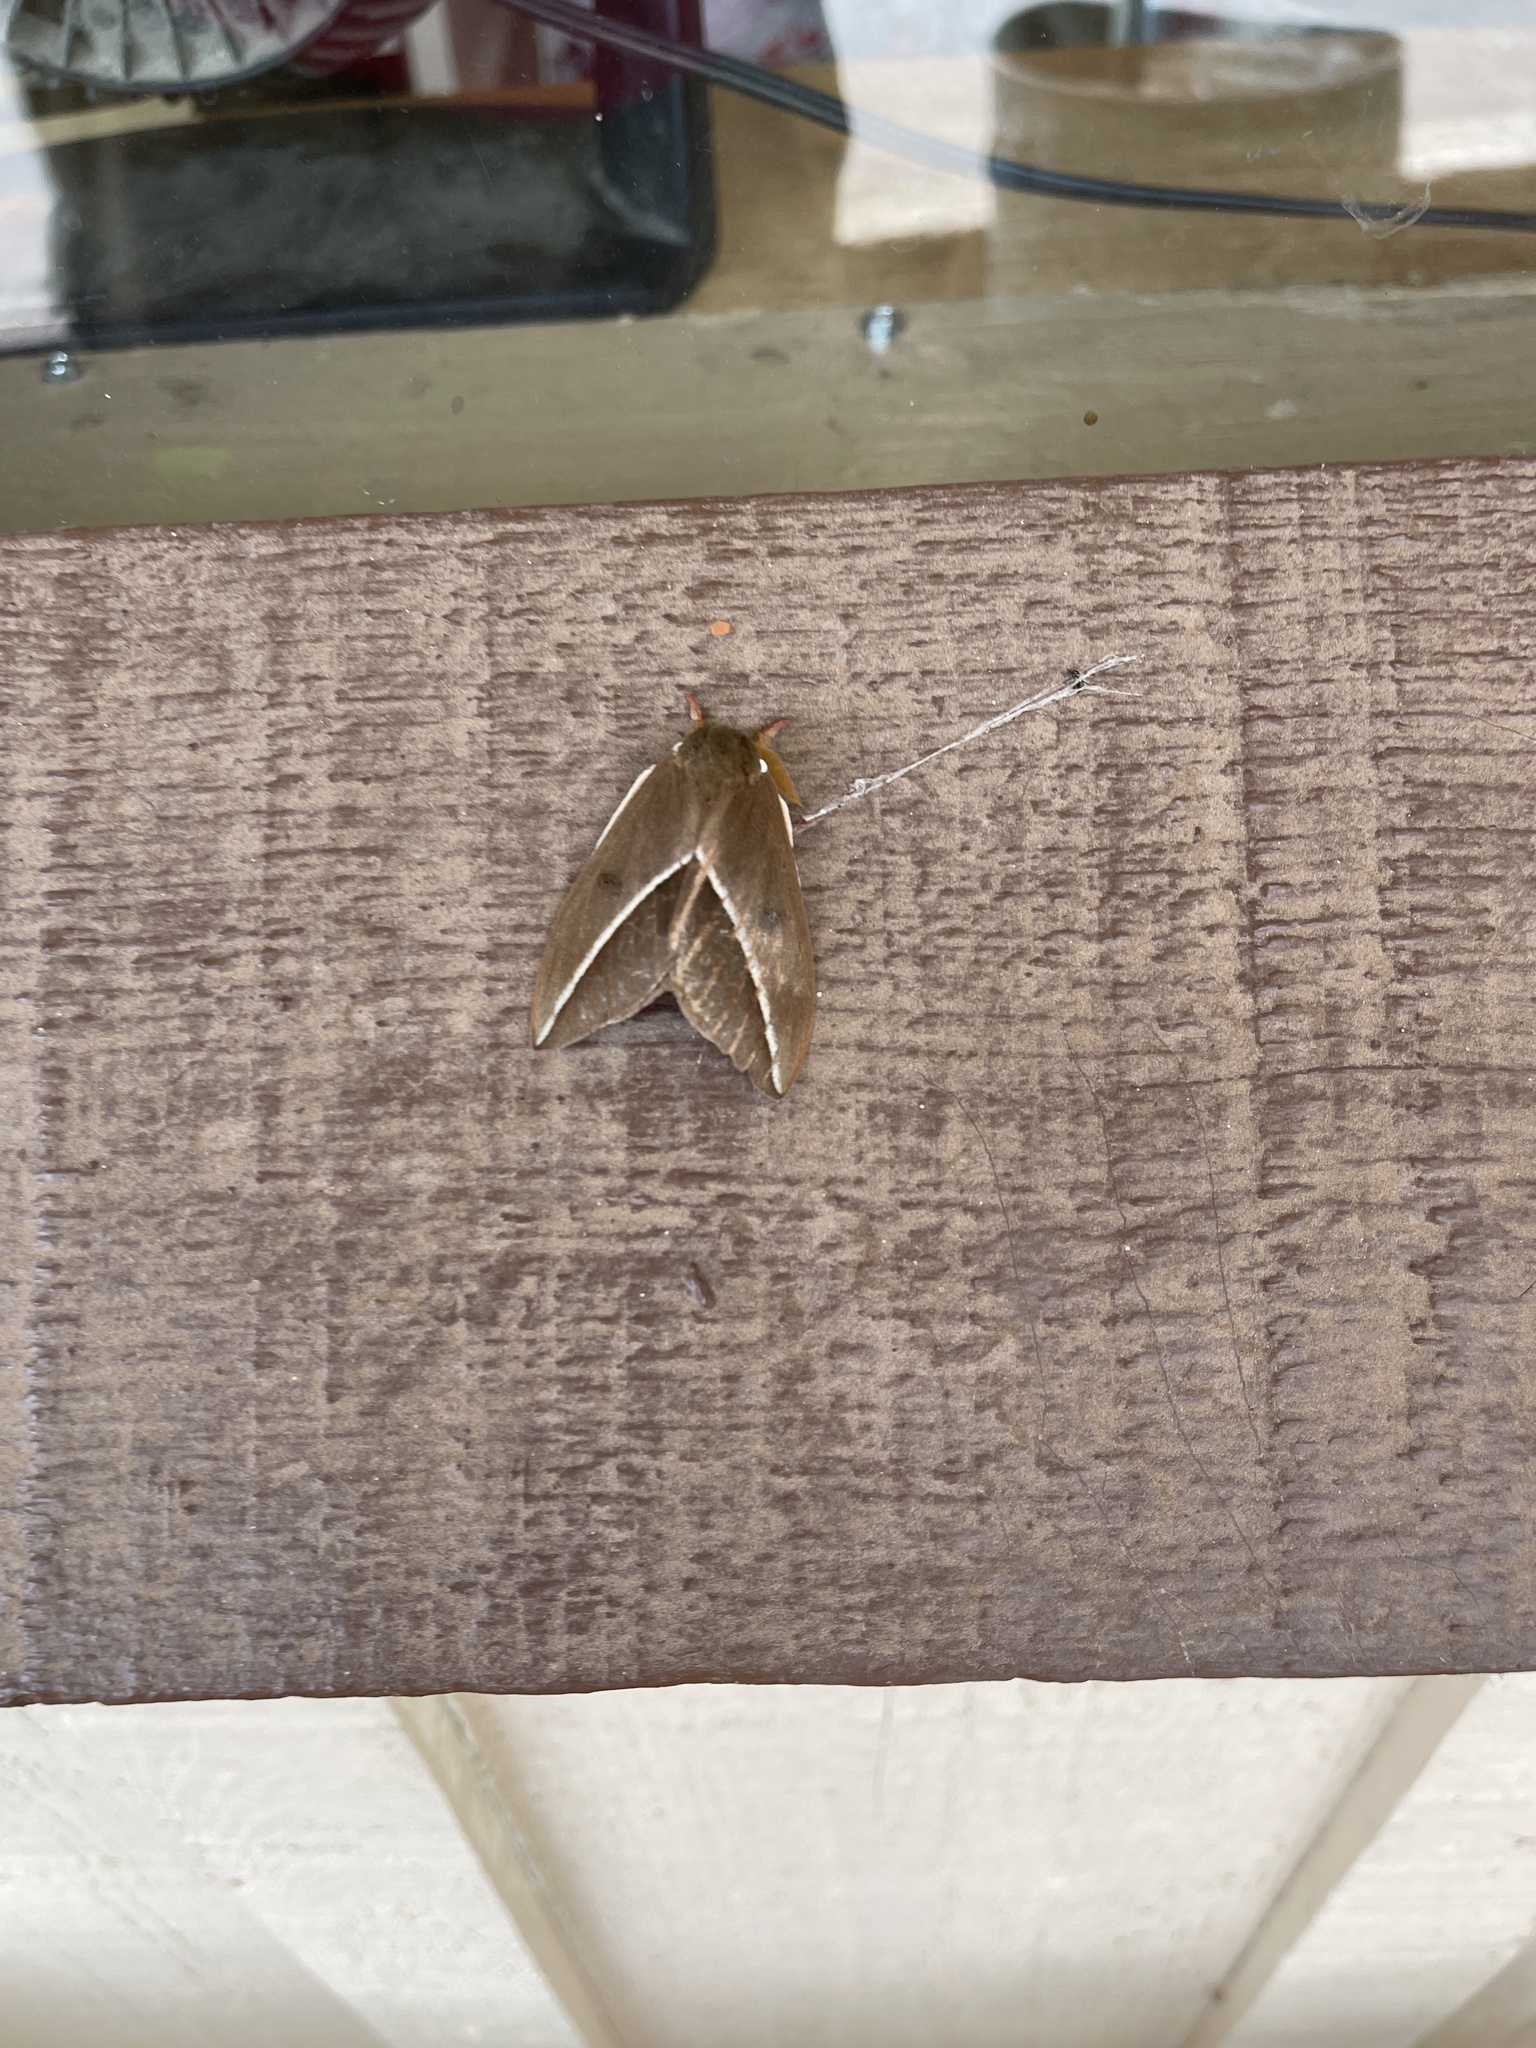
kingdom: Animalia
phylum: Arthropoda
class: Insecta
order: Lepidoptera
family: Saturniidae
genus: Automeris
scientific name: Automeris zephyria
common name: Zephyr eyed silkmoth
